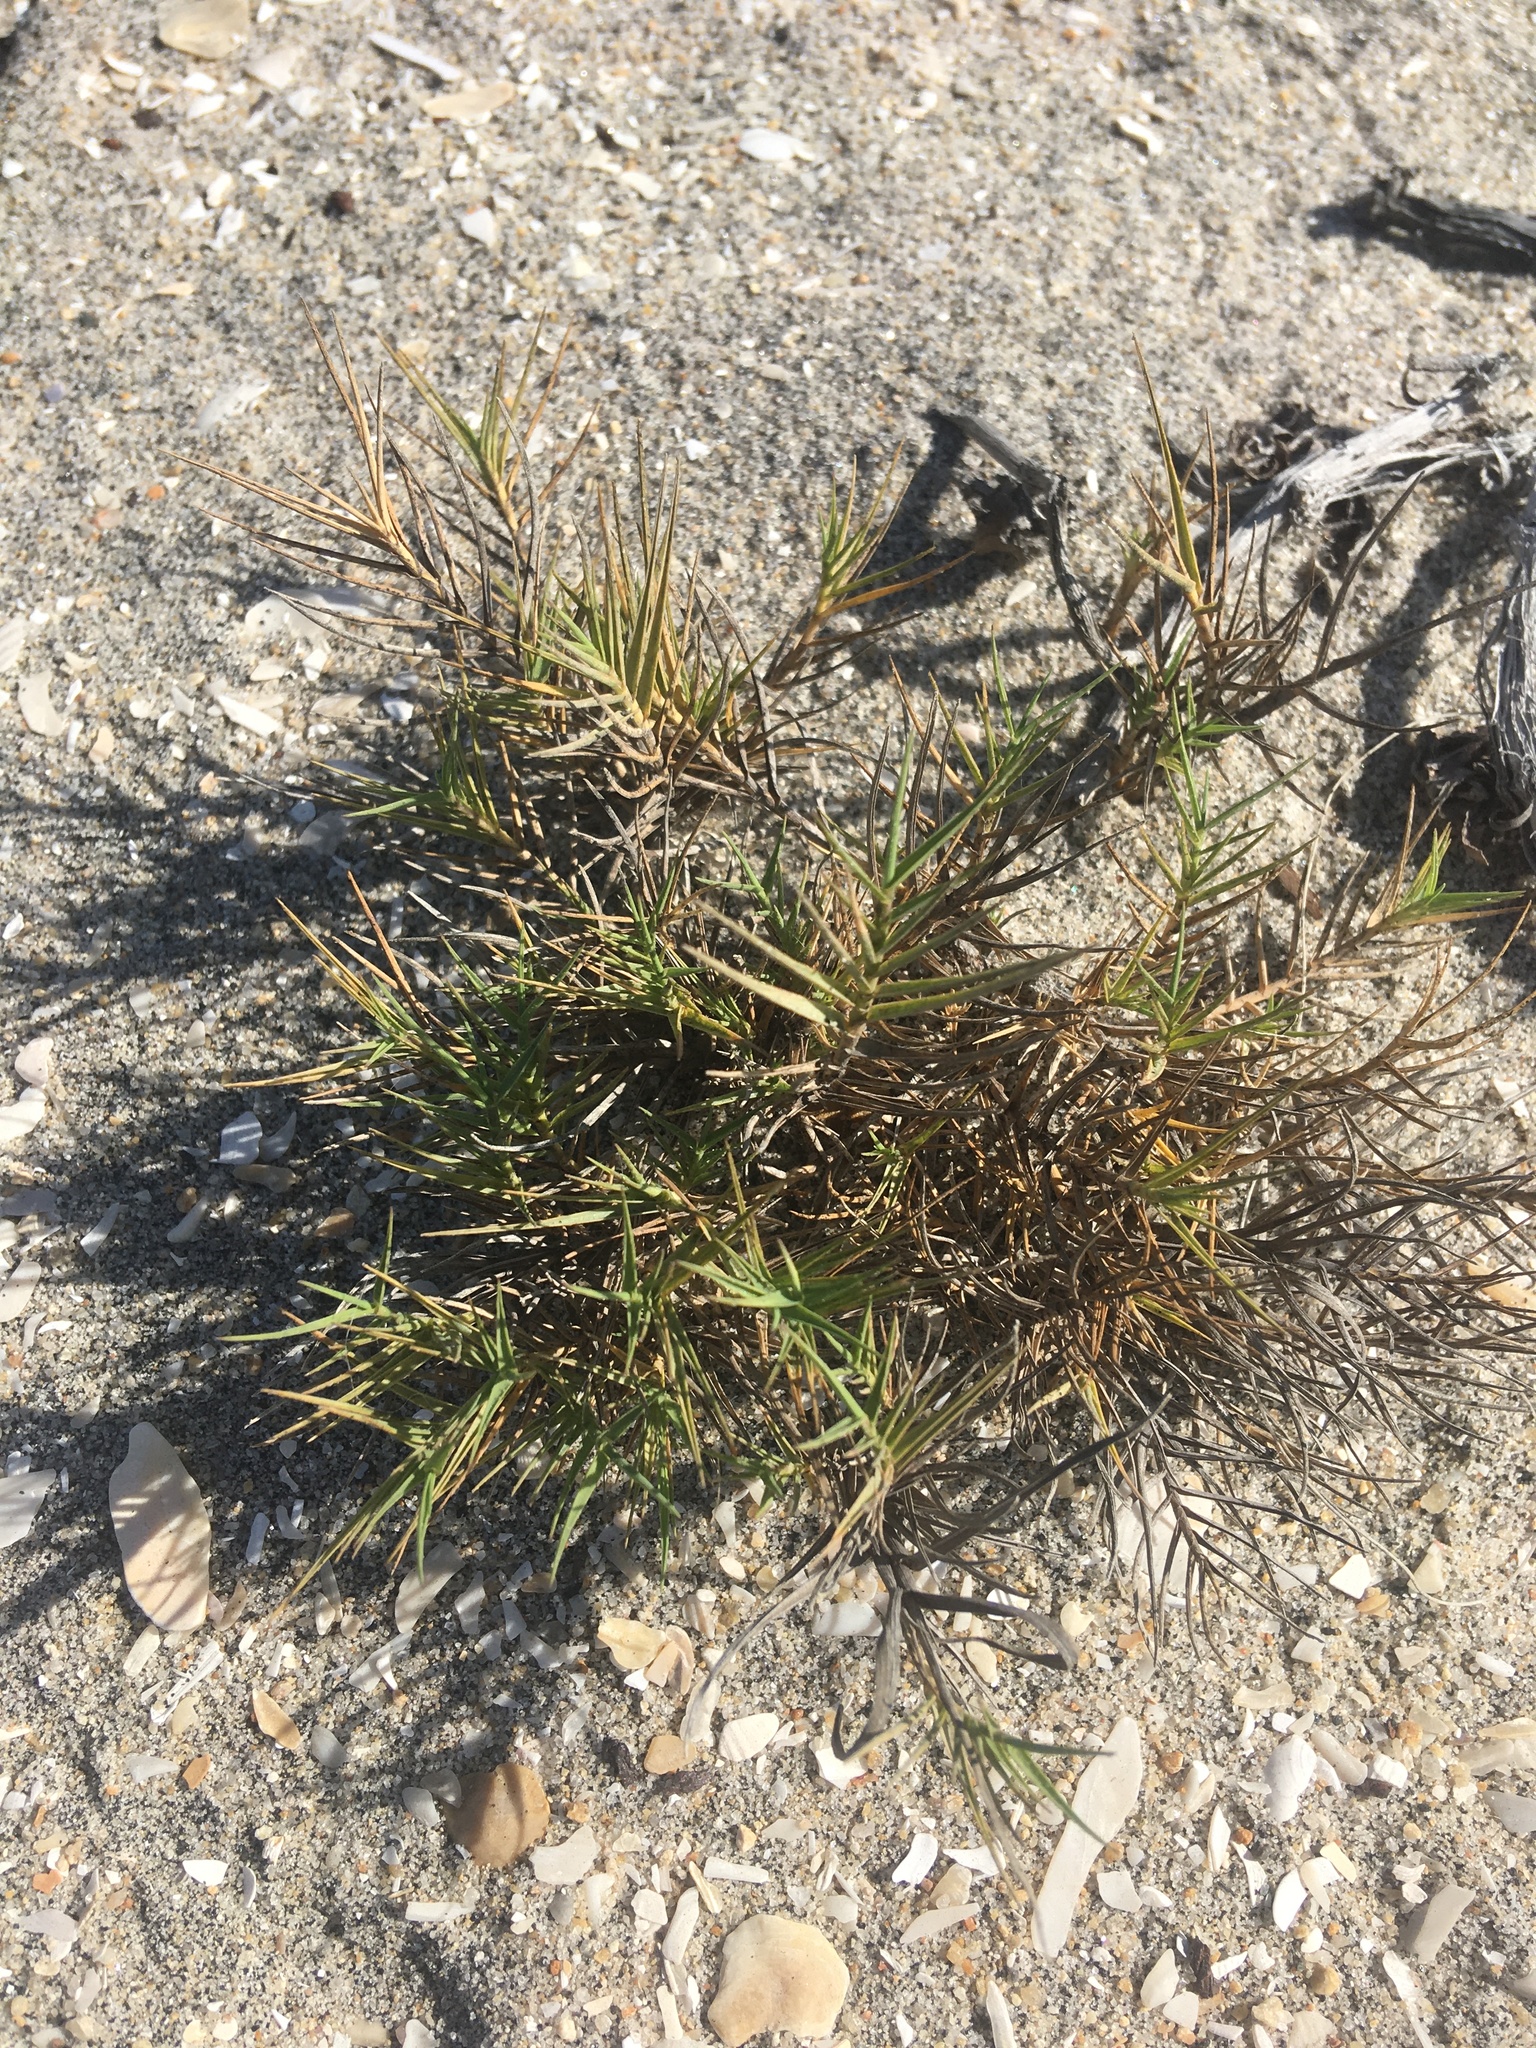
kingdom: Plantae
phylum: Tracheophyta
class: Liliopsida
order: Poales
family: Poaceae
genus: Distichlis
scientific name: Distichlis spicata
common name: Saltgrass
